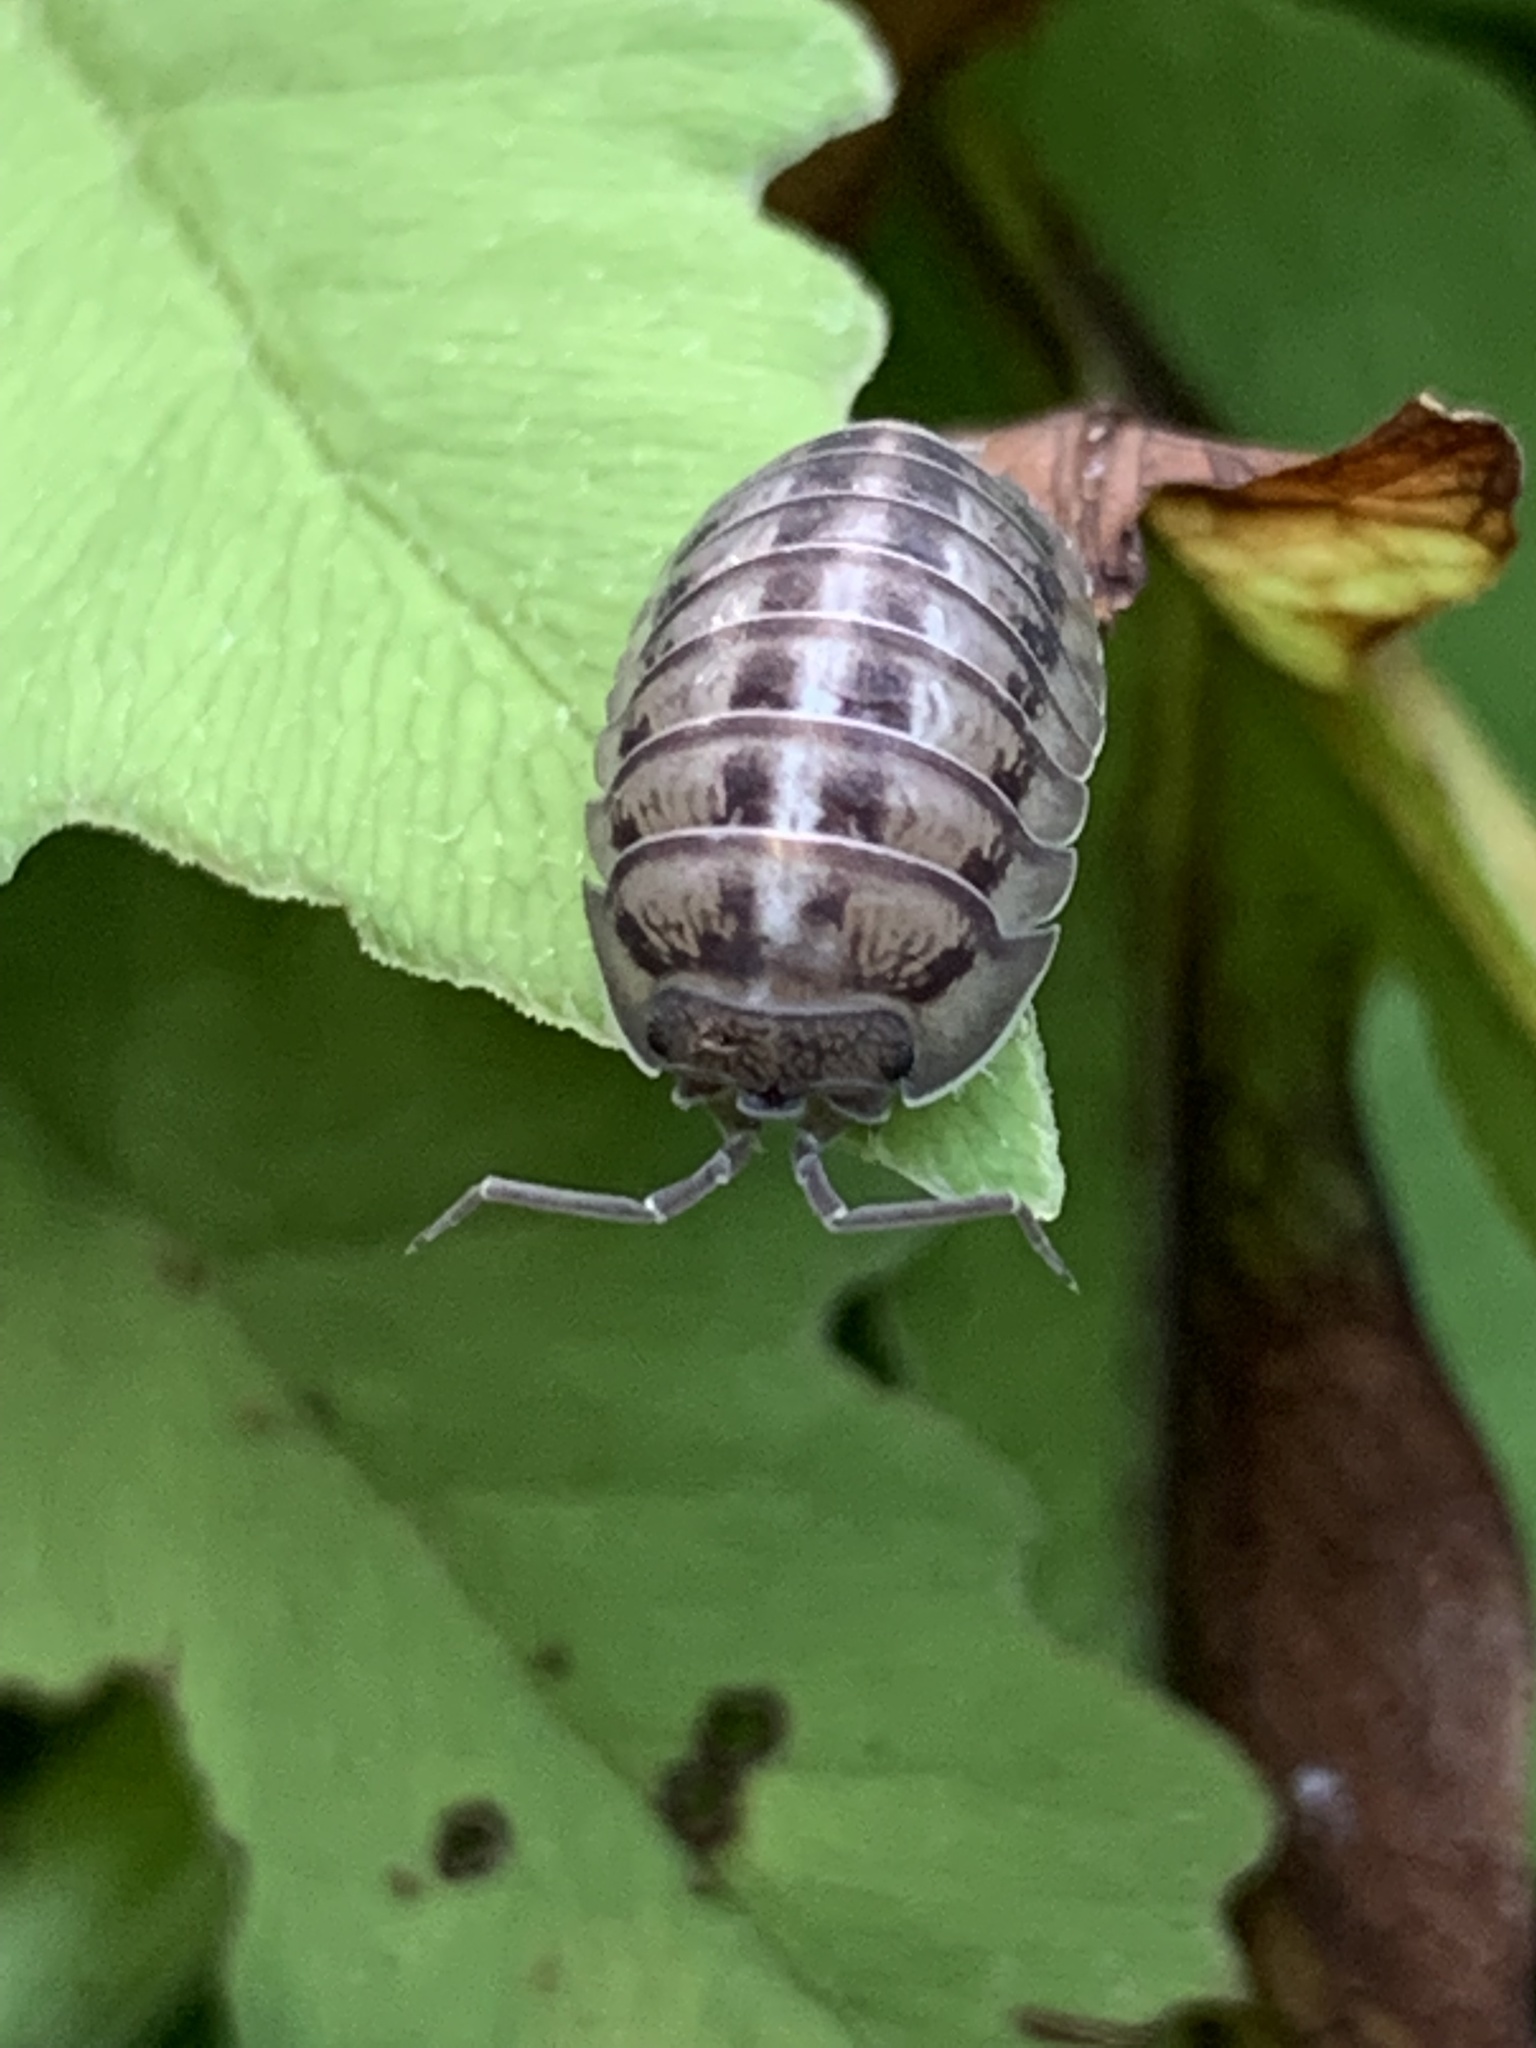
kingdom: Animalia
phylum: Arthropoda
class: Malacostraca
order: Isopoda
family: Armadillidiidae
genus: Armadillidium
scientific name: Armadillidium nasatum
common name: Isopod
